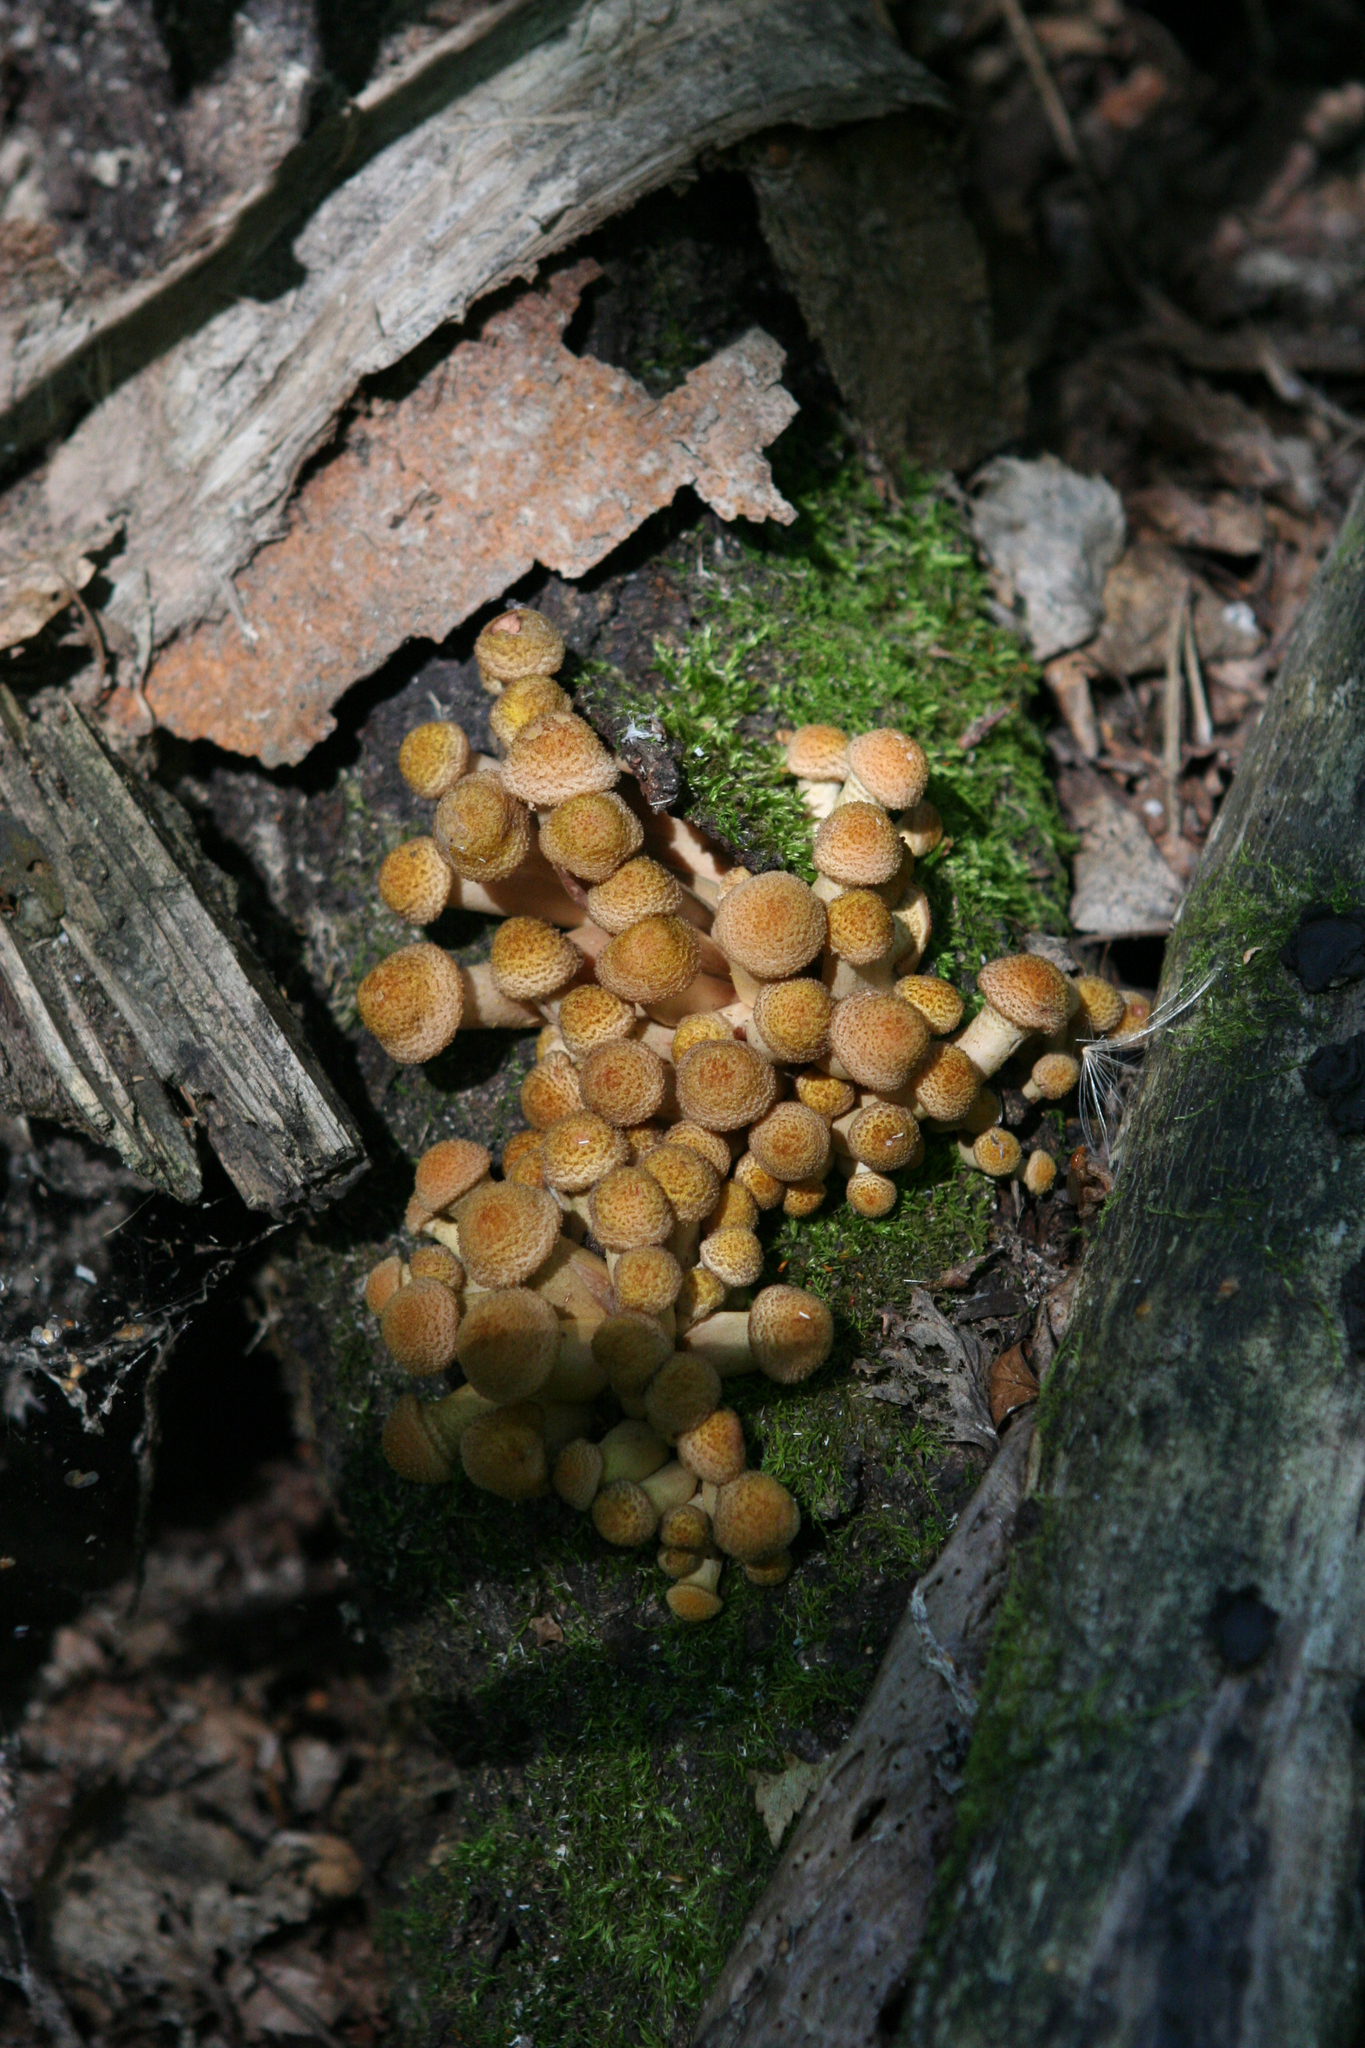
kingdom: Fungi
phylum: Basidiomycota
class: Agaricomycetes
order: Agaricales
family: Physalacriaceae
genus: Armillaria
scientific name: Armillaria borealis
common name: Northern honey fungus
